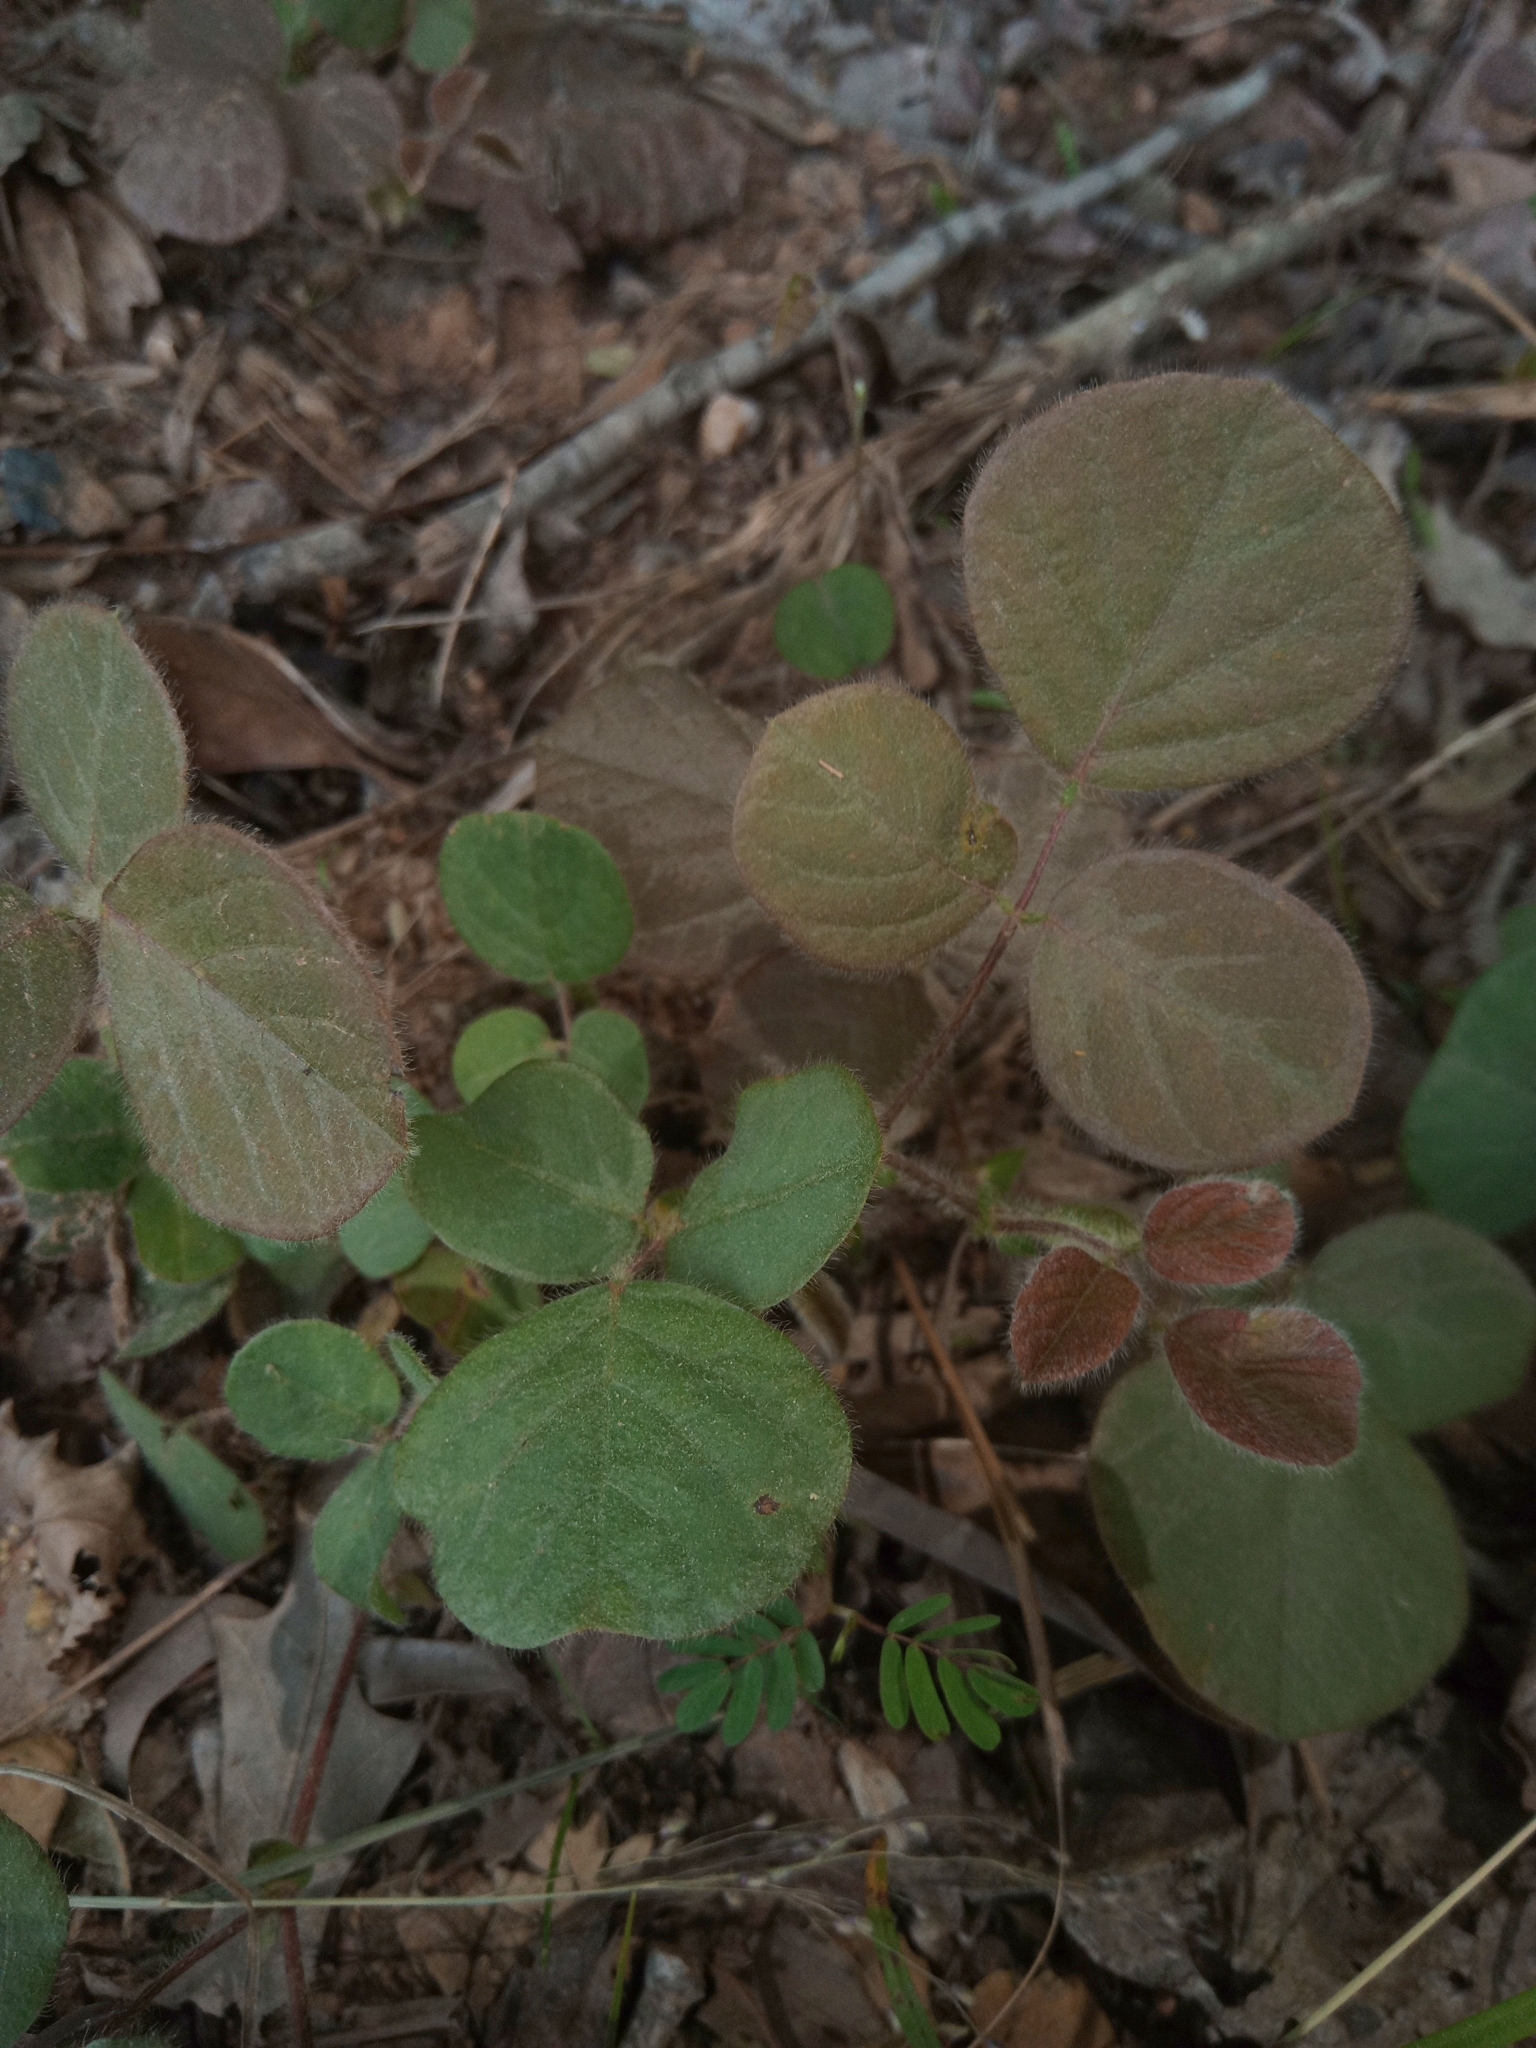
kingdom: Plantae
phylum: Tracheophyta
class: Magnoliopsida
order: Fabales
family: Fabaceae
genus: Desmodium
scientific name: Desmodium rotundifolium
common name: Dollarleaf
